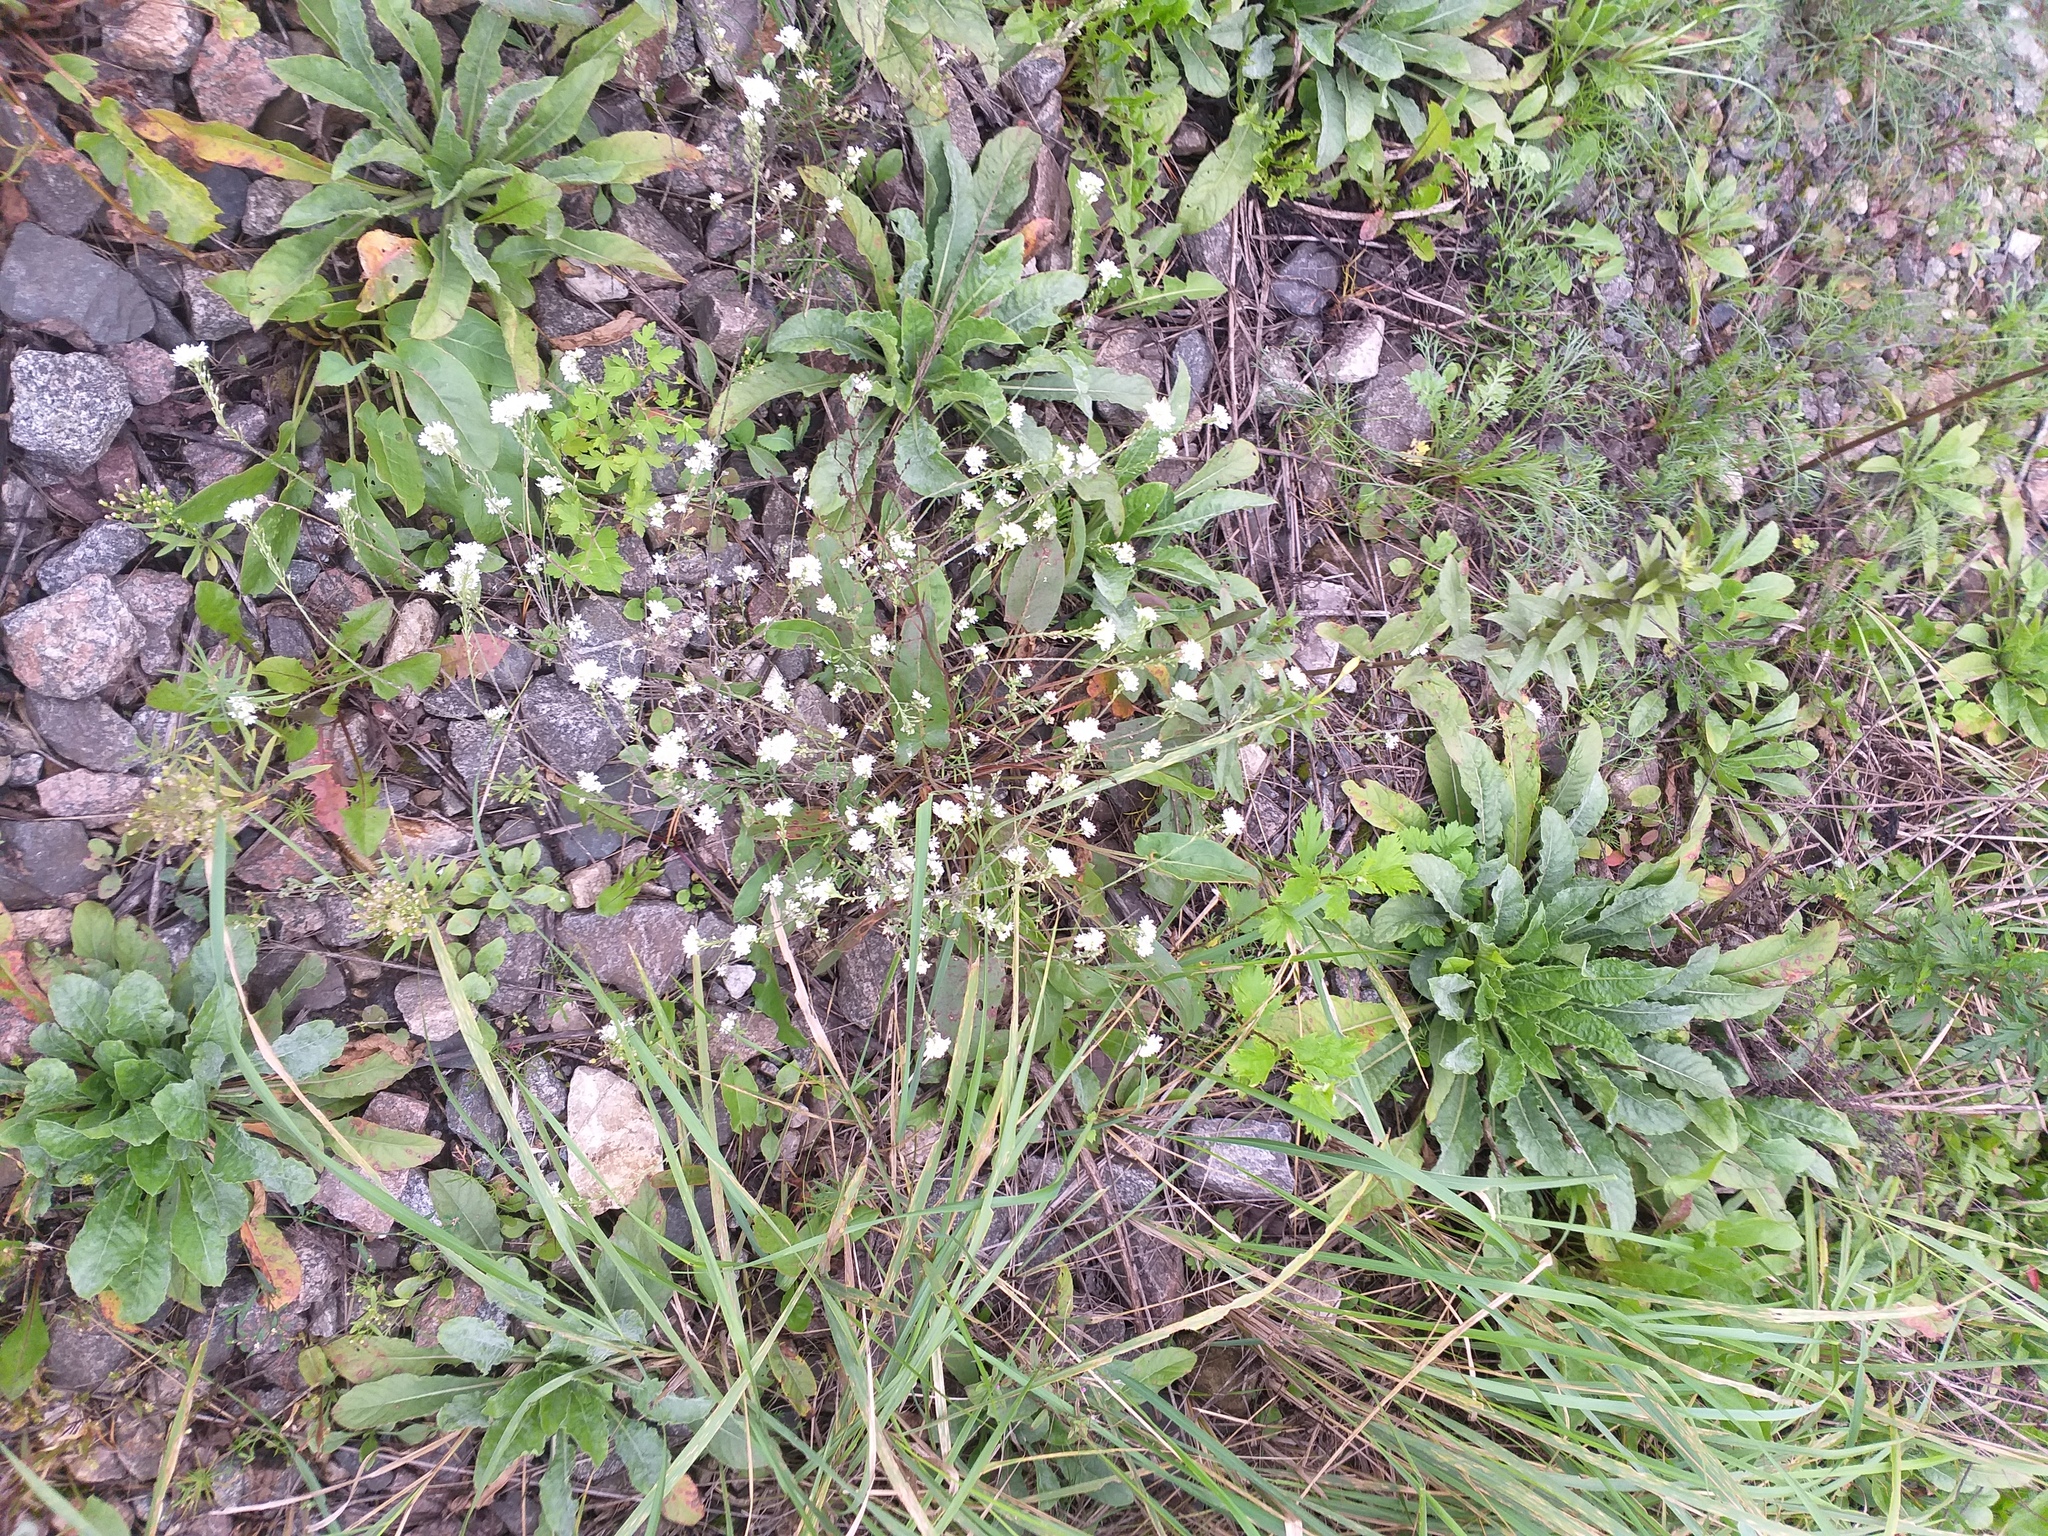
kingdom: Plantae
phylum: Tracheophyta
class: Magnoliopsida
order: Brassicales
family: Brassicaceae
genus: Berteroa
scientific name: Berteroa incana
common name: Hoary alison
